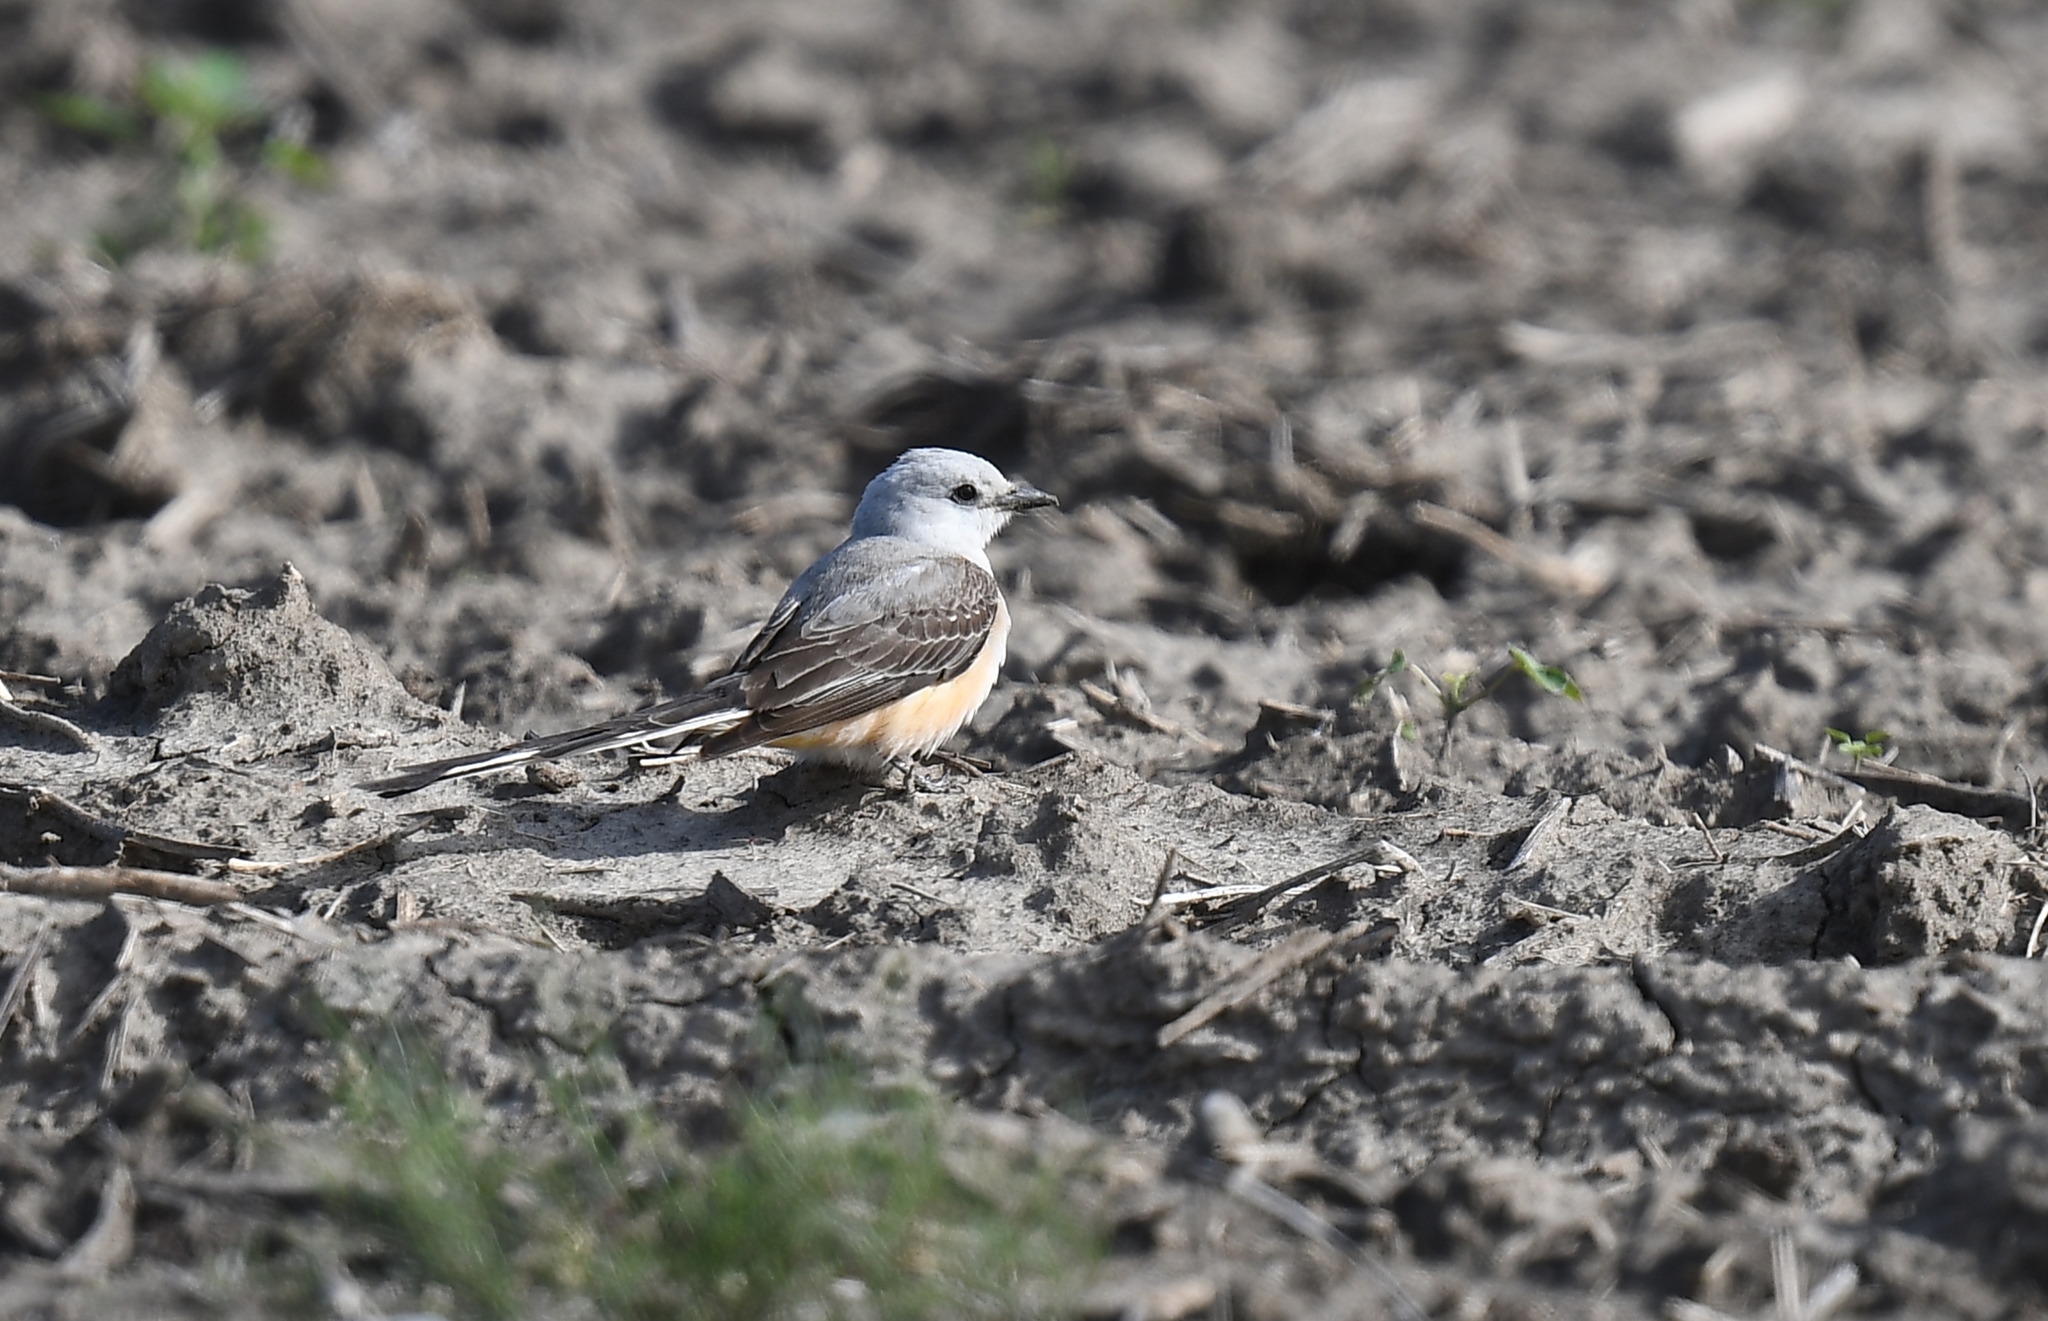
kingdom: Animalia
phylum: Chordata
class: Aves
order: Passeriformes
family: Tyrannidae
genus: Tyrannus
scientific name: Tyrannus forficatus
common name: Scissor-tailed flycatcher
